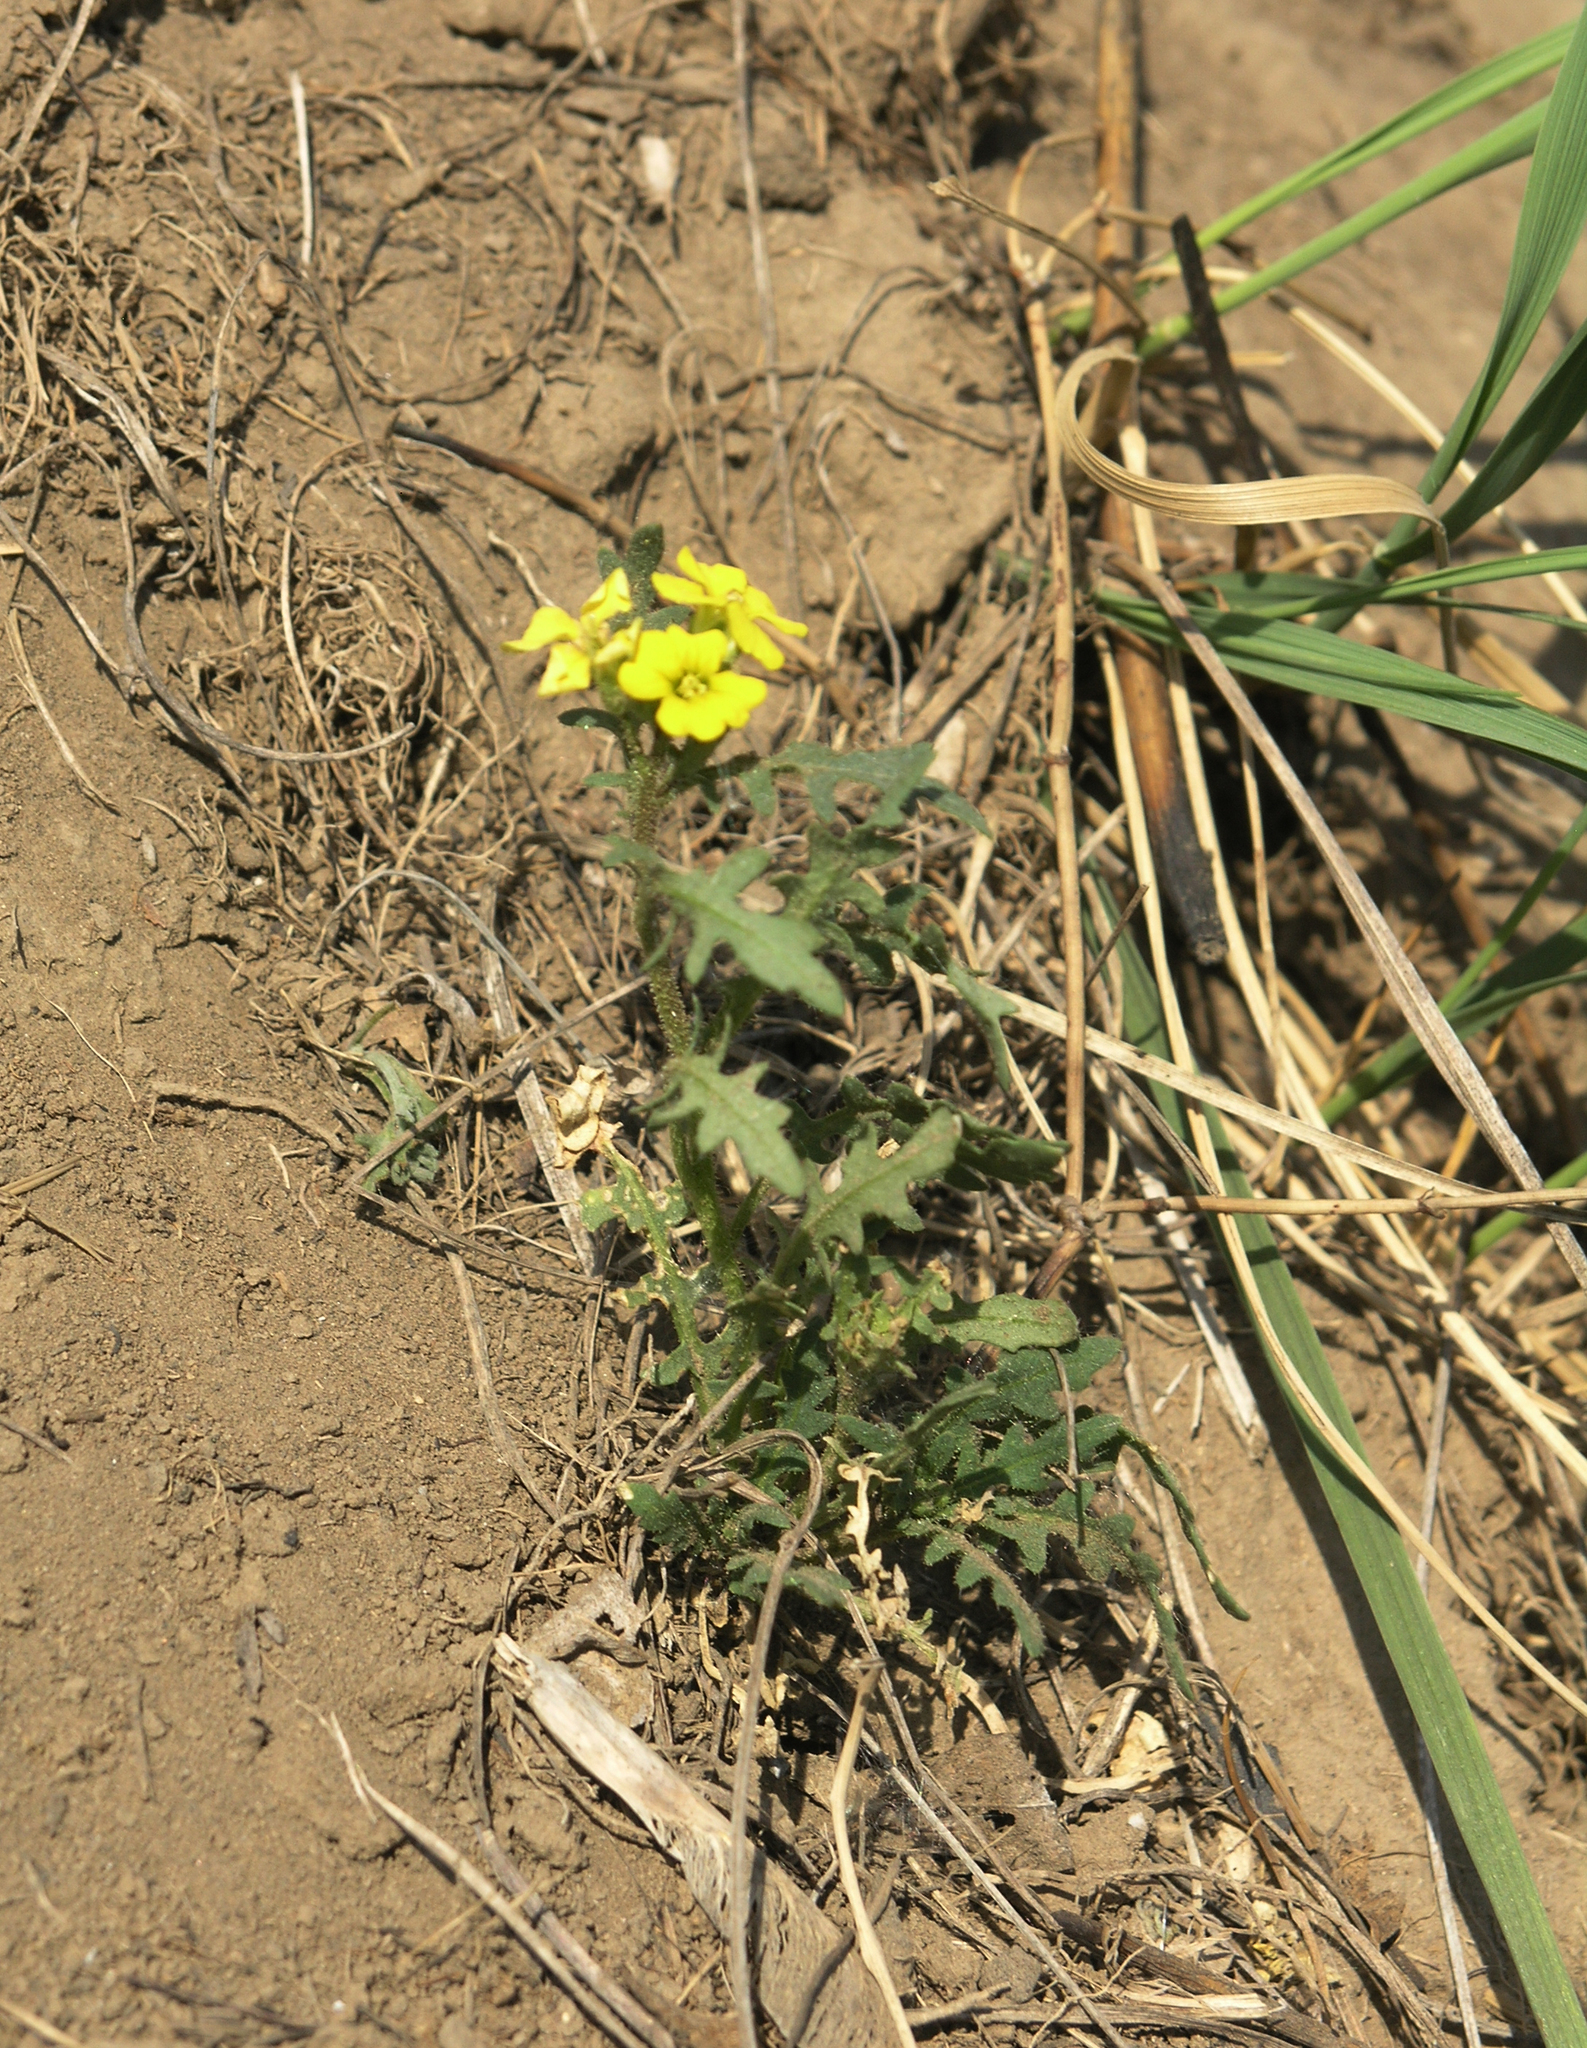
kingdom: Plantae
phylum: Tracheophyta
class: Magnoliopsida
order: Brassicales
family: Brassicaceae
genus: Chorispora
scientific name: Chorispora sibirica
